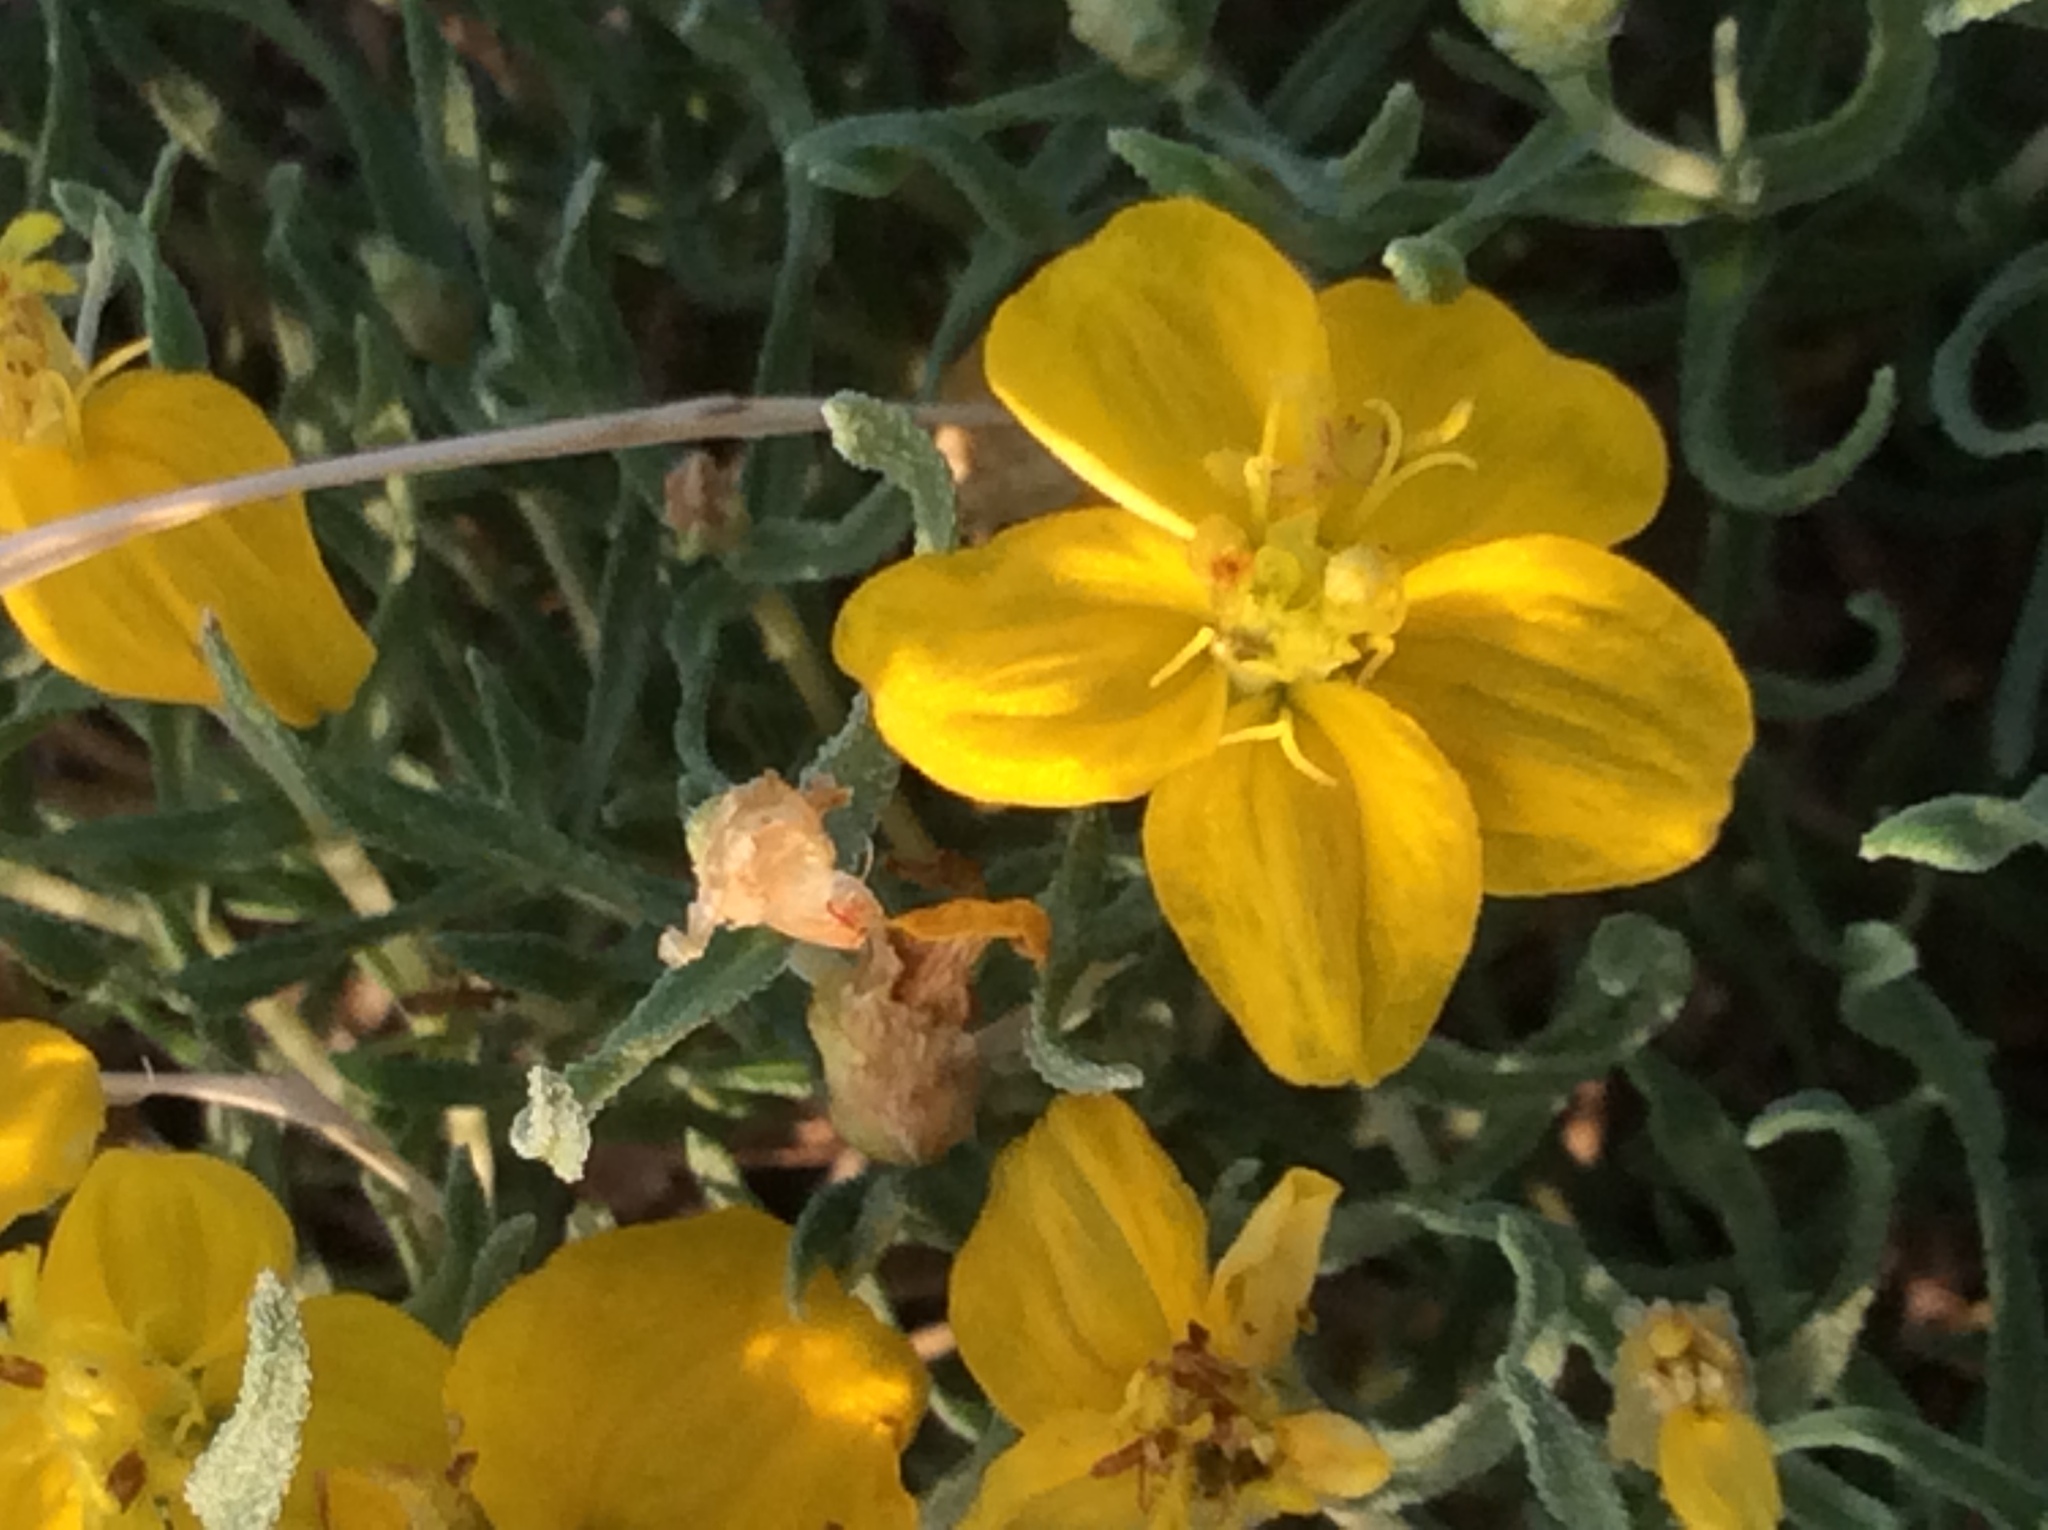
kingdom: Plantae
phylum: Tracheophyta
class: Magnoliopsida
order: Asterales
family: Asteraceae
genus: Zinnia
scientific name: Zinnia grandiflora
